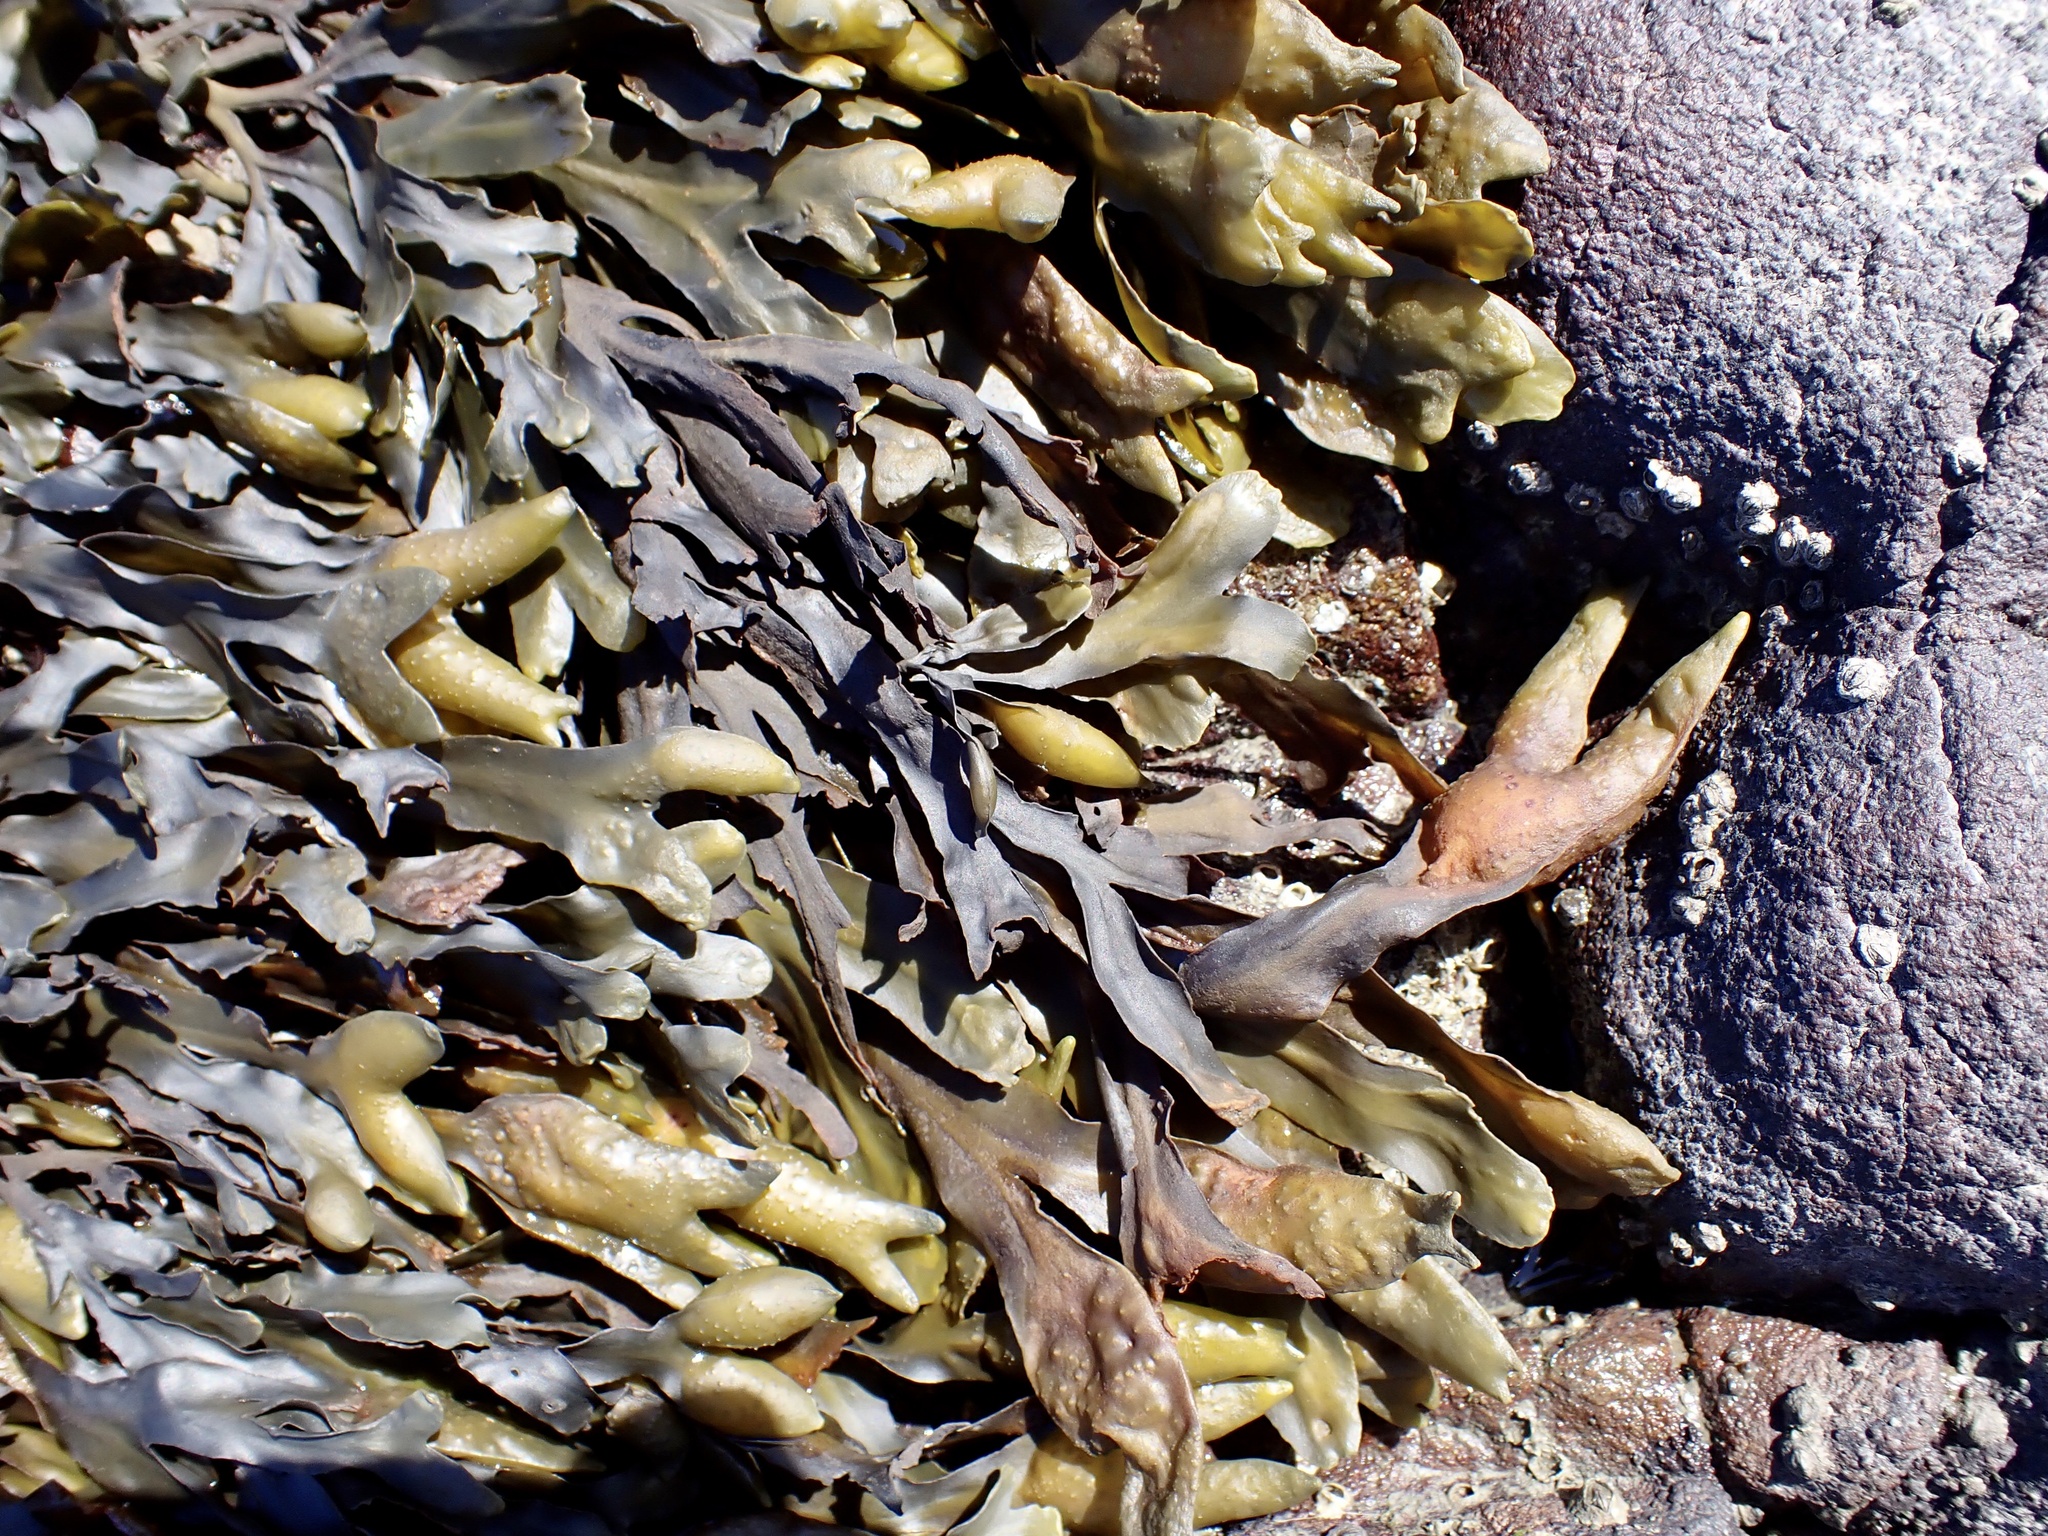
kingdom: Chromista
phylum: Ochrophyta
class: Phaeophyceae
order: Fucales
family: Fucaceae
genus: Fucus
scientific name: Fucus distichus
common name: Rockweed
